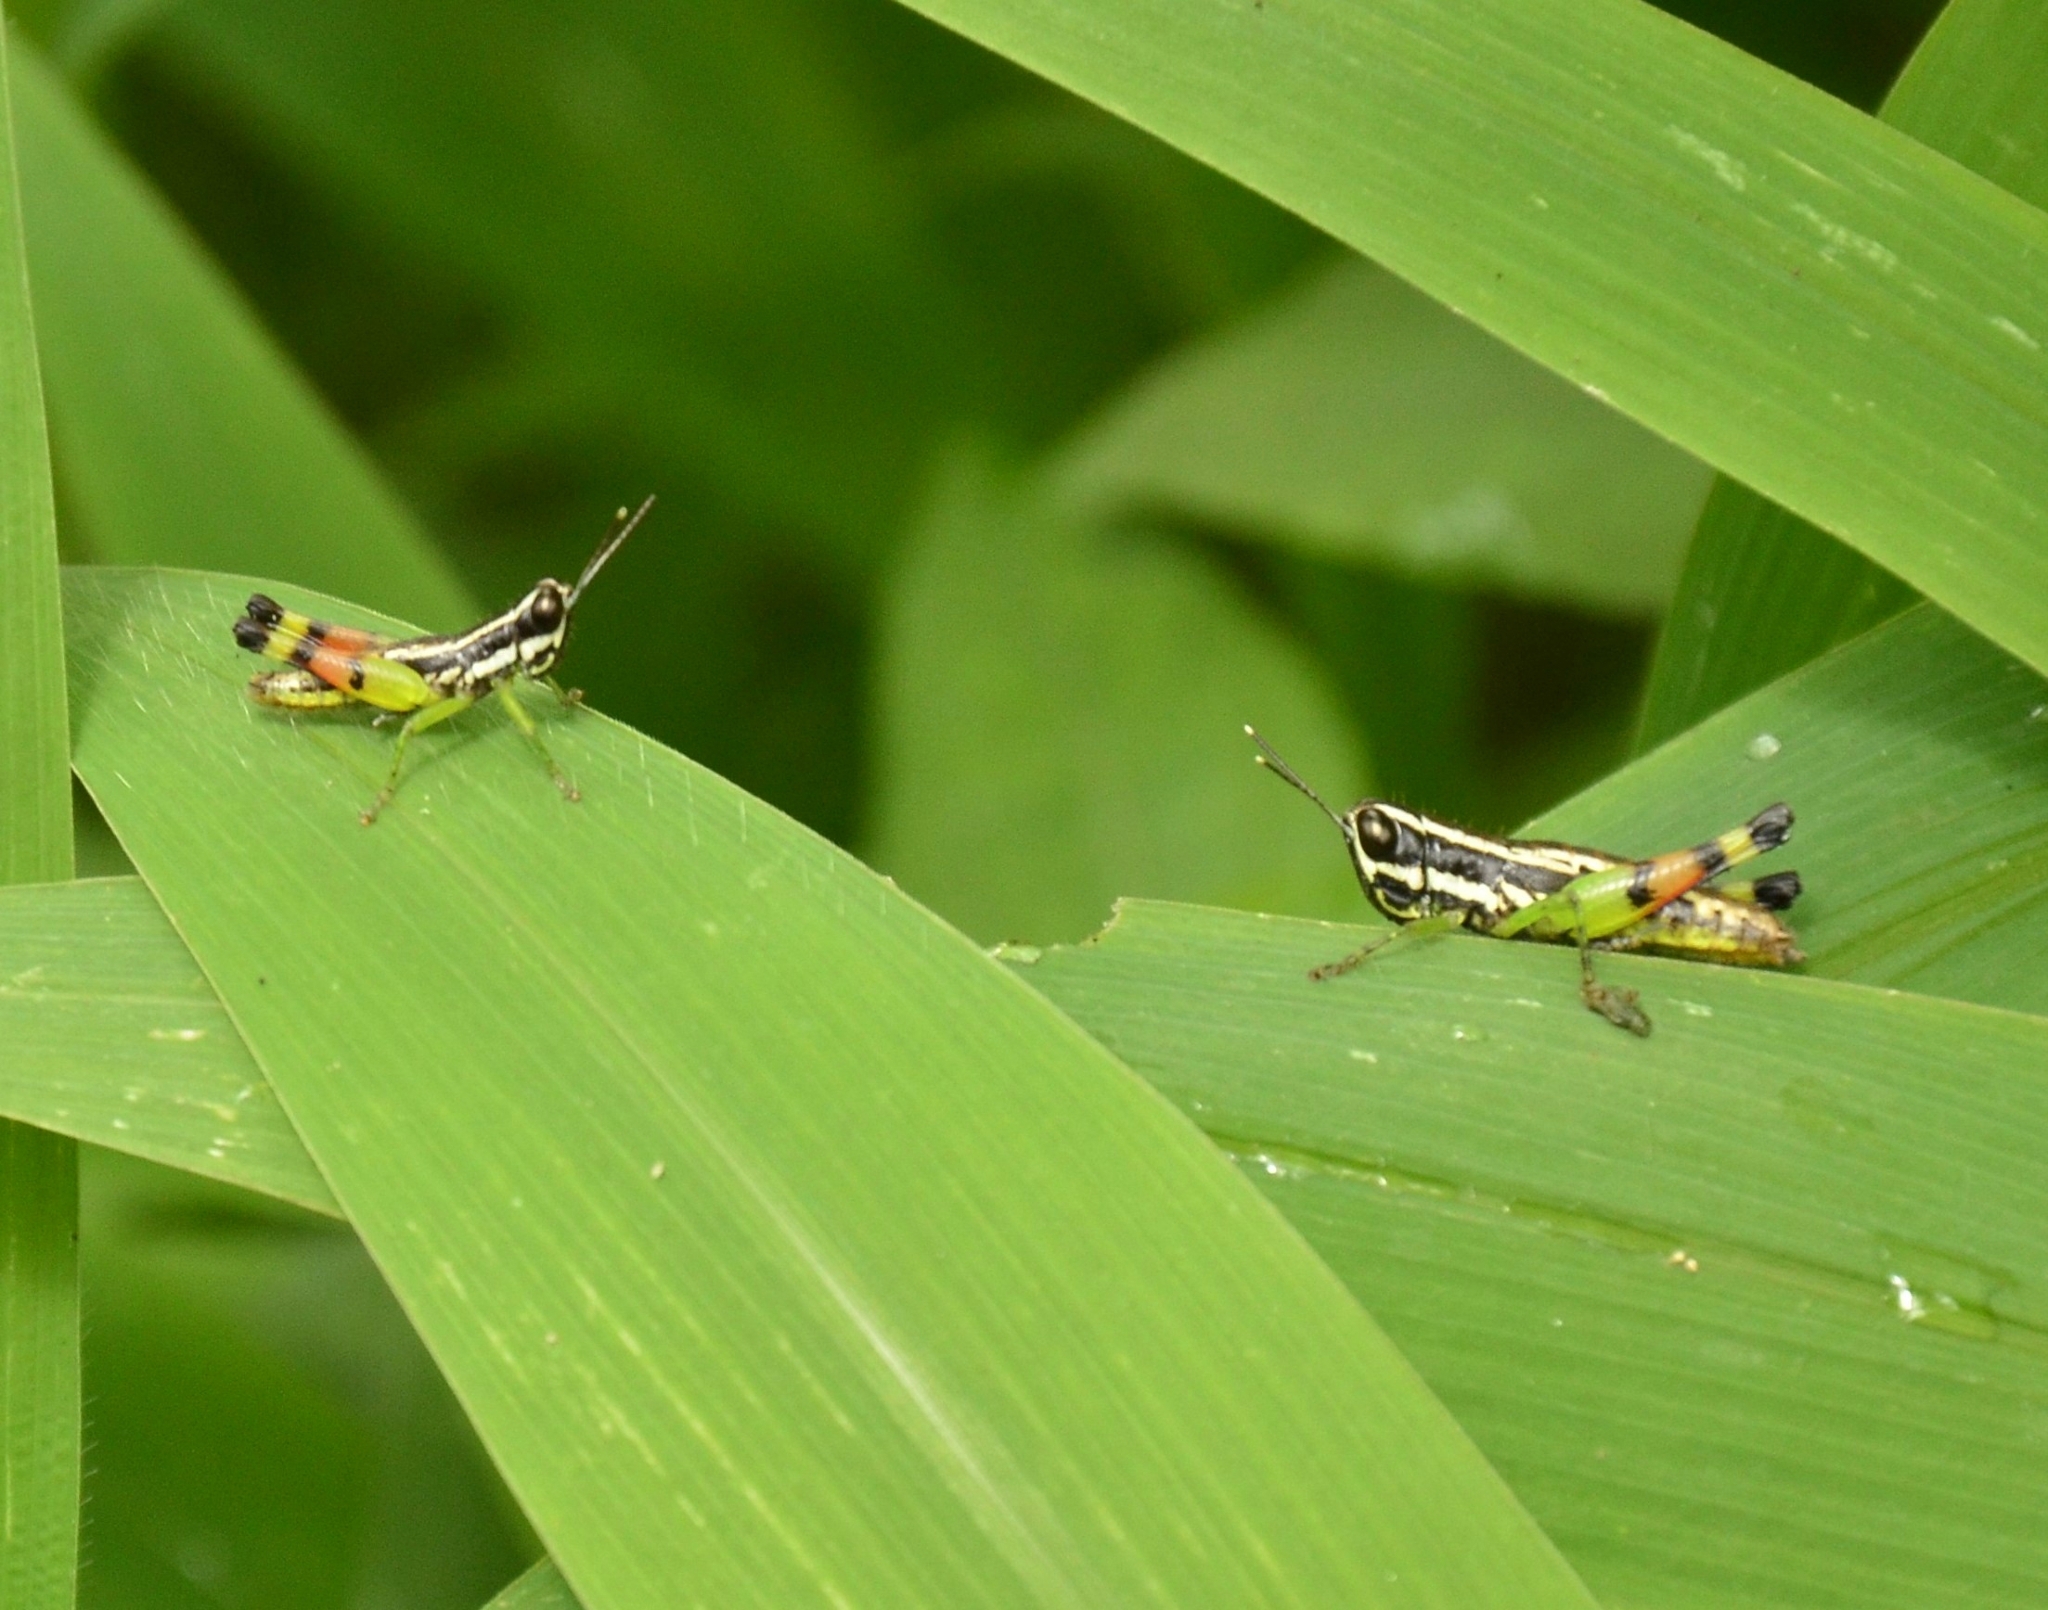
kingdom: Animalia
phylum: Arthropoda
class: Insecta
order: Orthoptera
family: Acrididae
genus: Chitaura
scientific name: Chitaura indica
